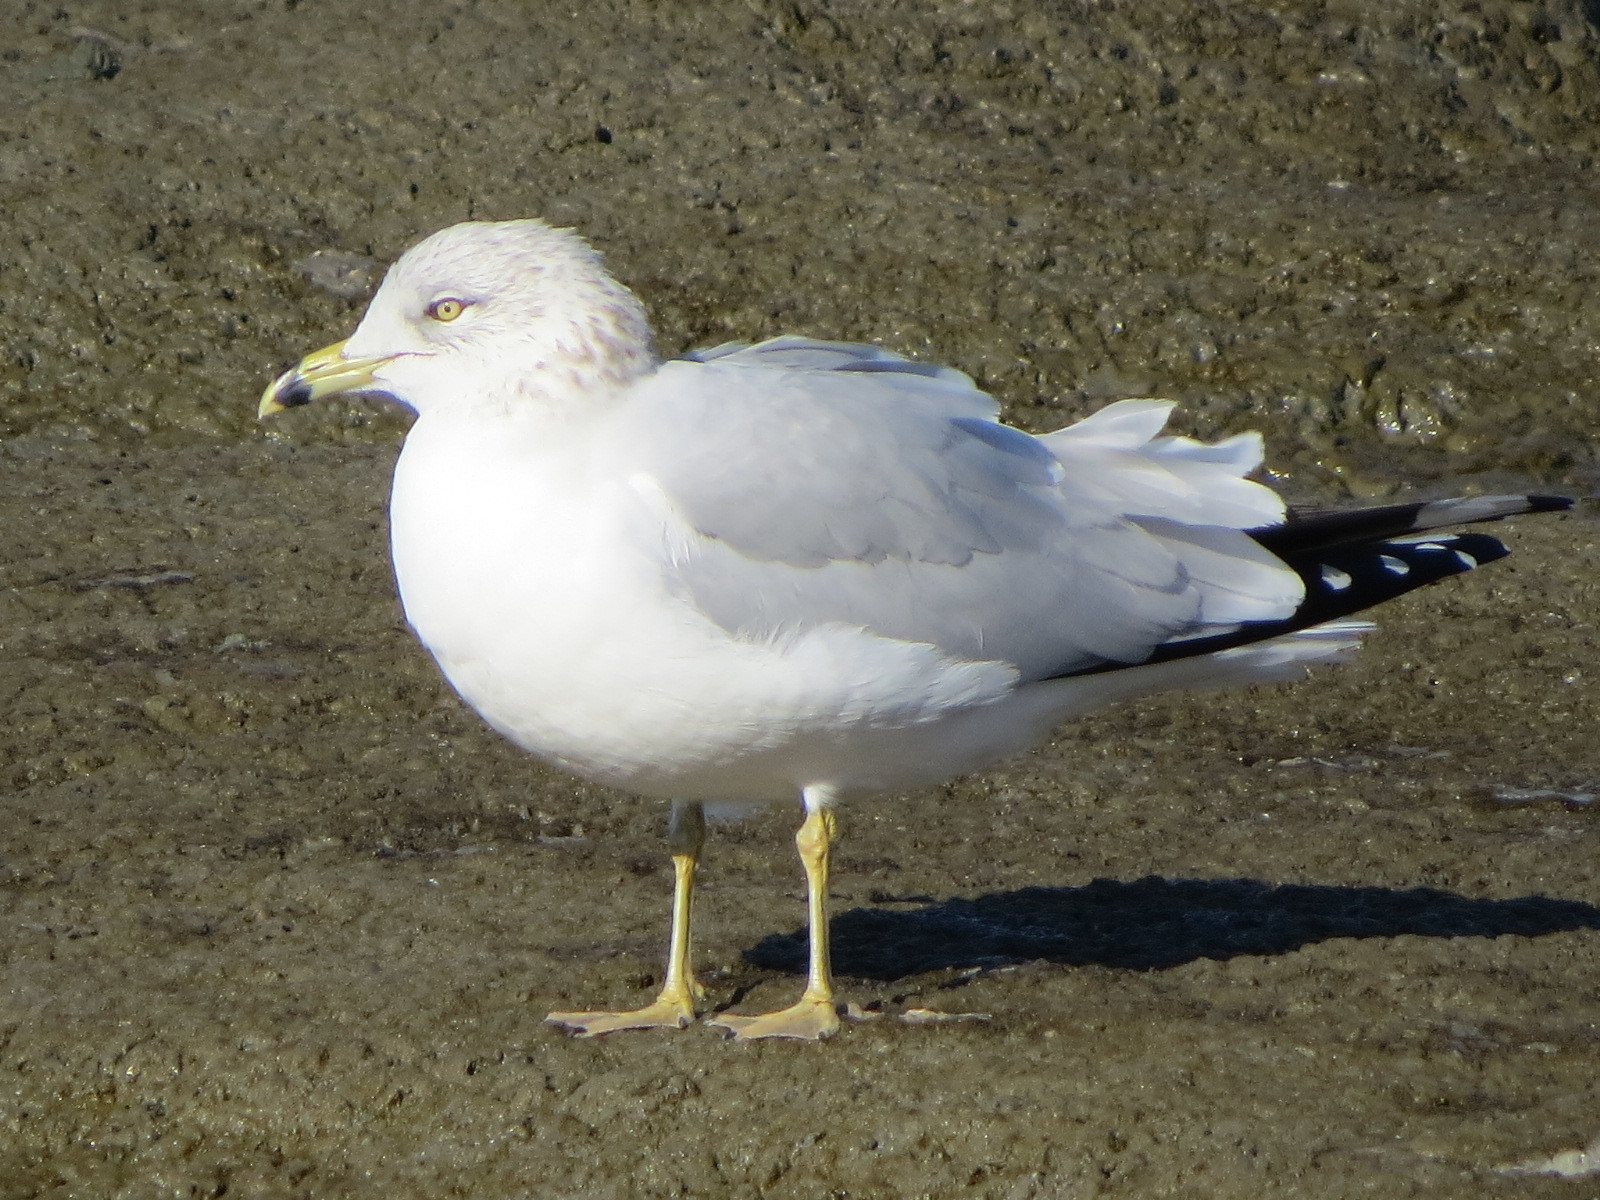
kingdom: Animalia
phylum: Chordata
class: Aves
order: Charadriiformes
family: Laridae
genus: Larus
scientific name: Larus delawarensis
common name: Ring-billed gull
